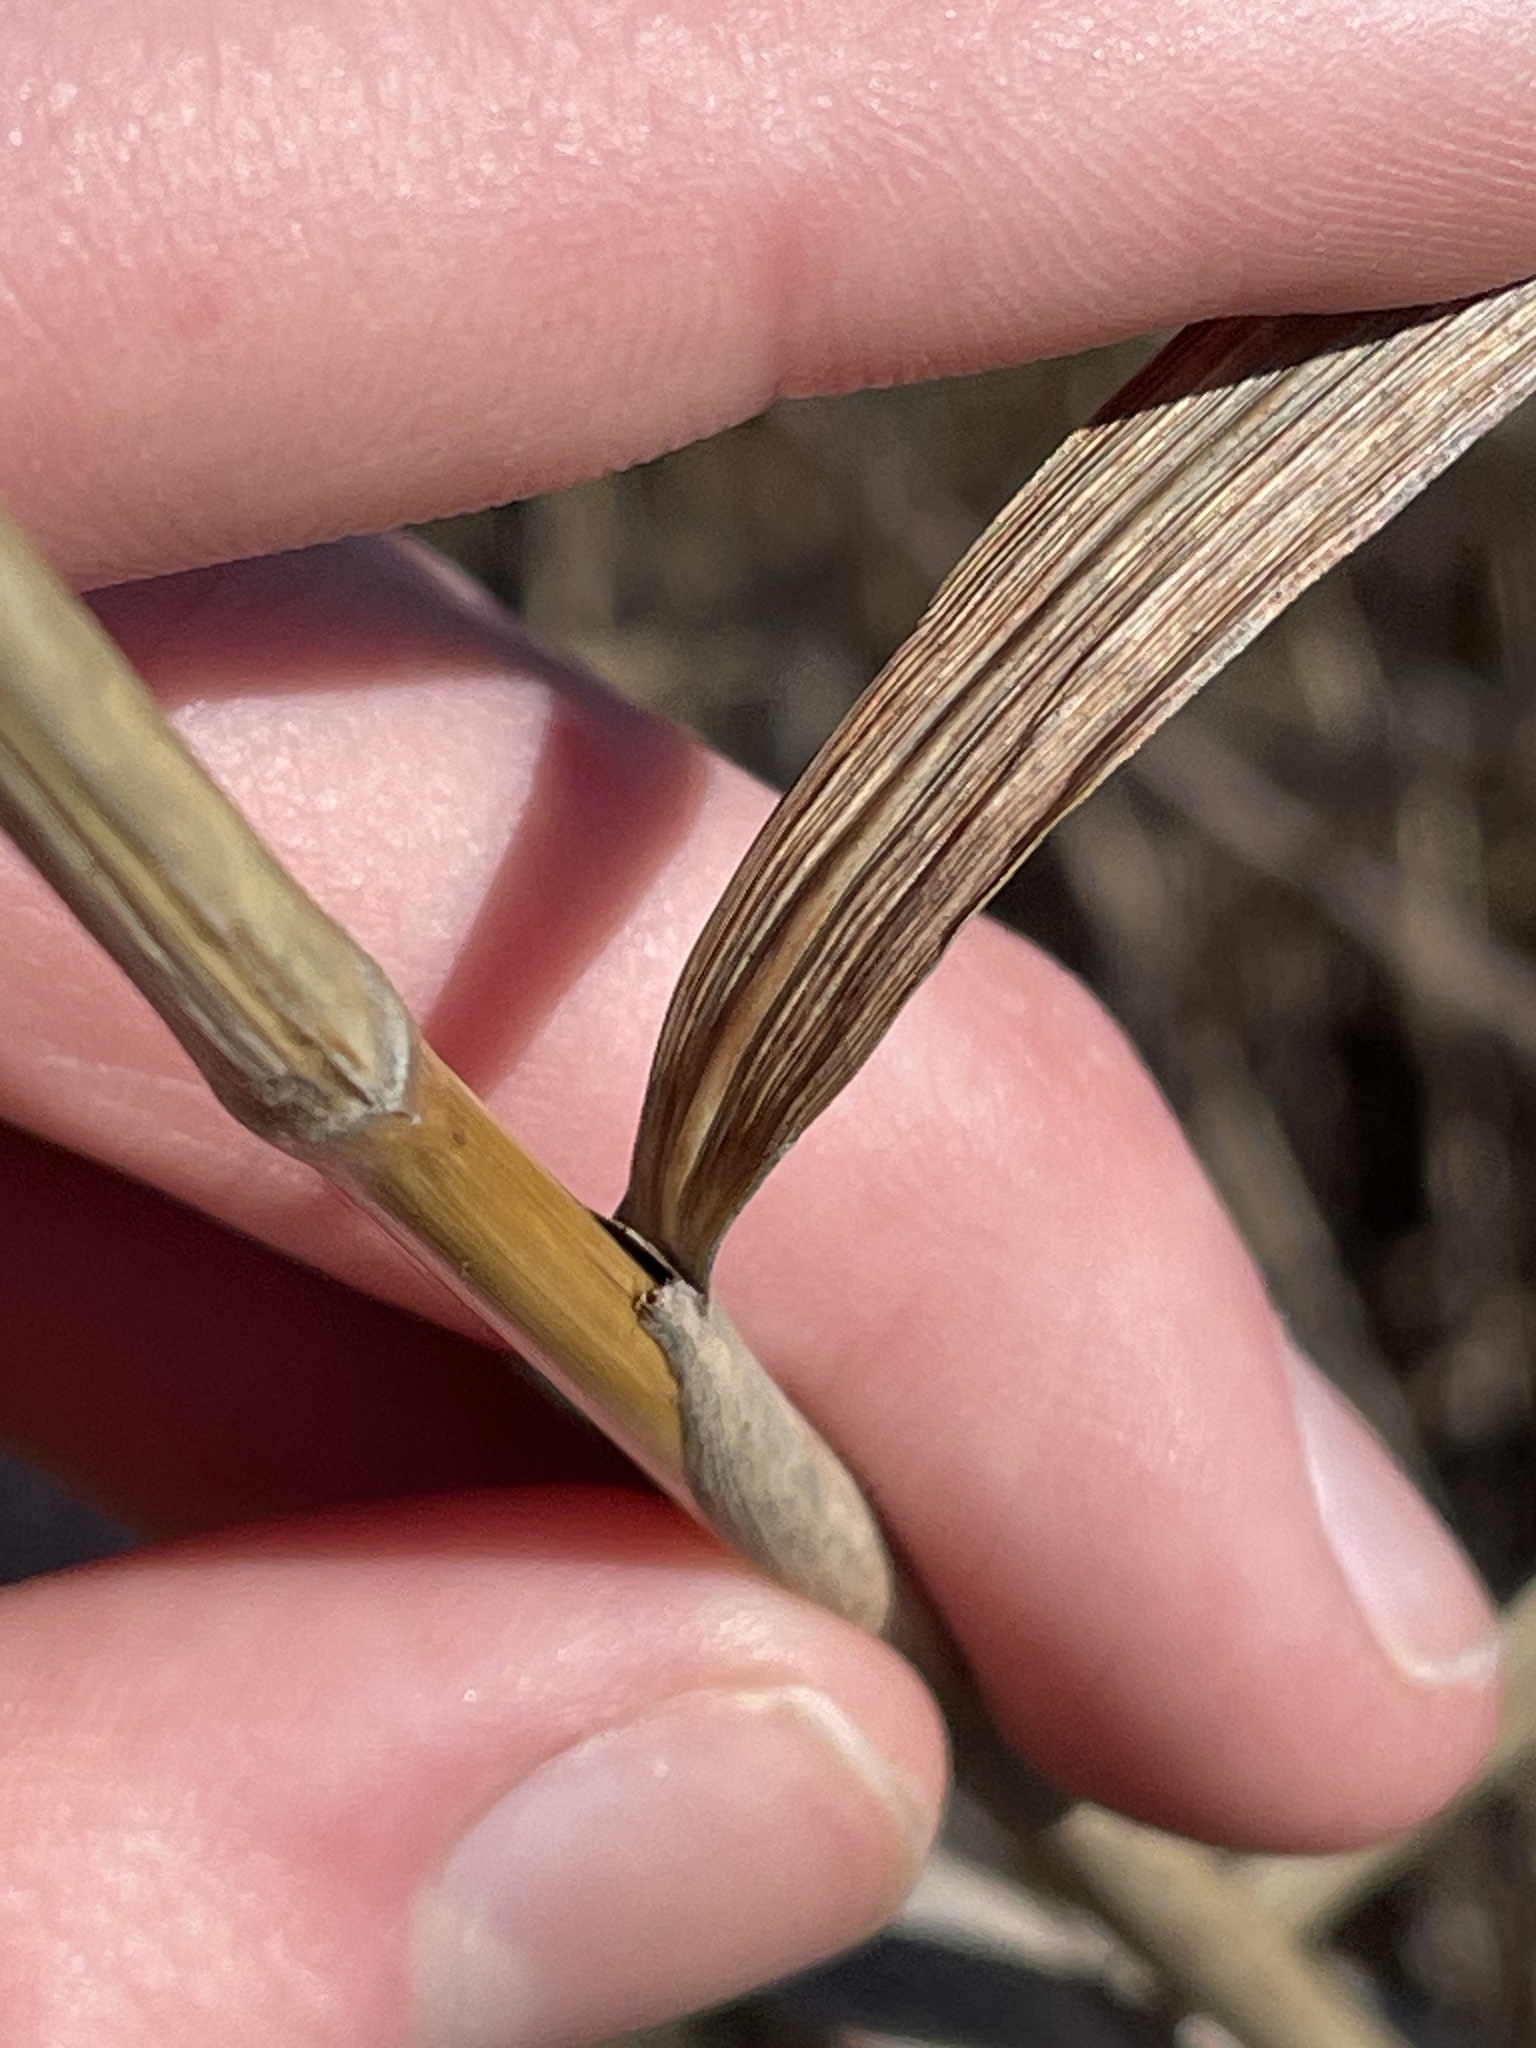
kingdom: Plantae
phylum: Tracheophyta
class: Liliopsida
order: Poales
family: Poaceae
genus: Sorghastrum
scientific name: Sorghastrum nutans
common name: Indian grass
